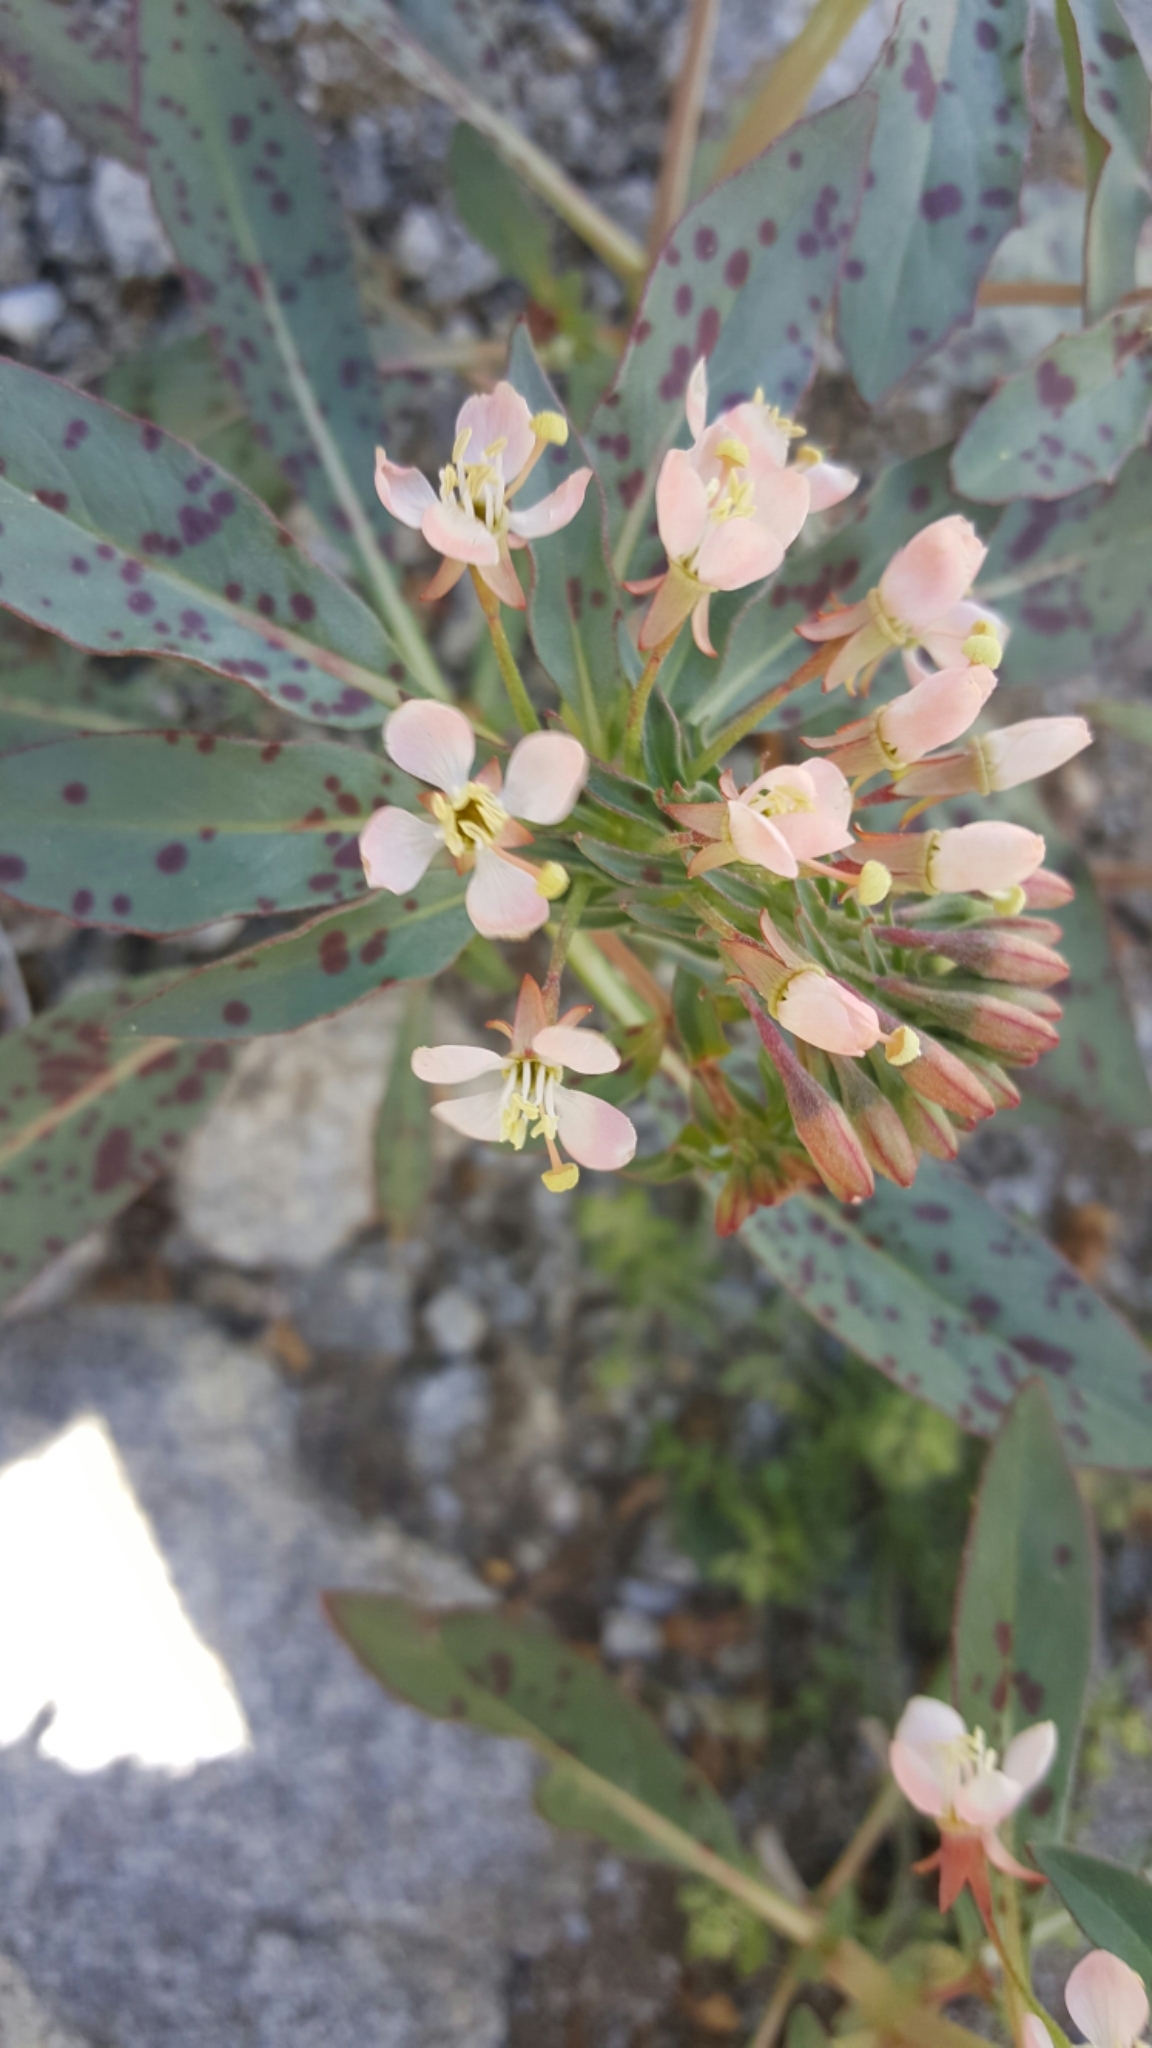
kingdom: Plantae
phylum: Tracheophyta
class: Magnoliopsida
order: Myrtales
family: Onagraceae
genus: Eremothera
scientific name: Eremothera boothii
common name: Booth's evening primrose
